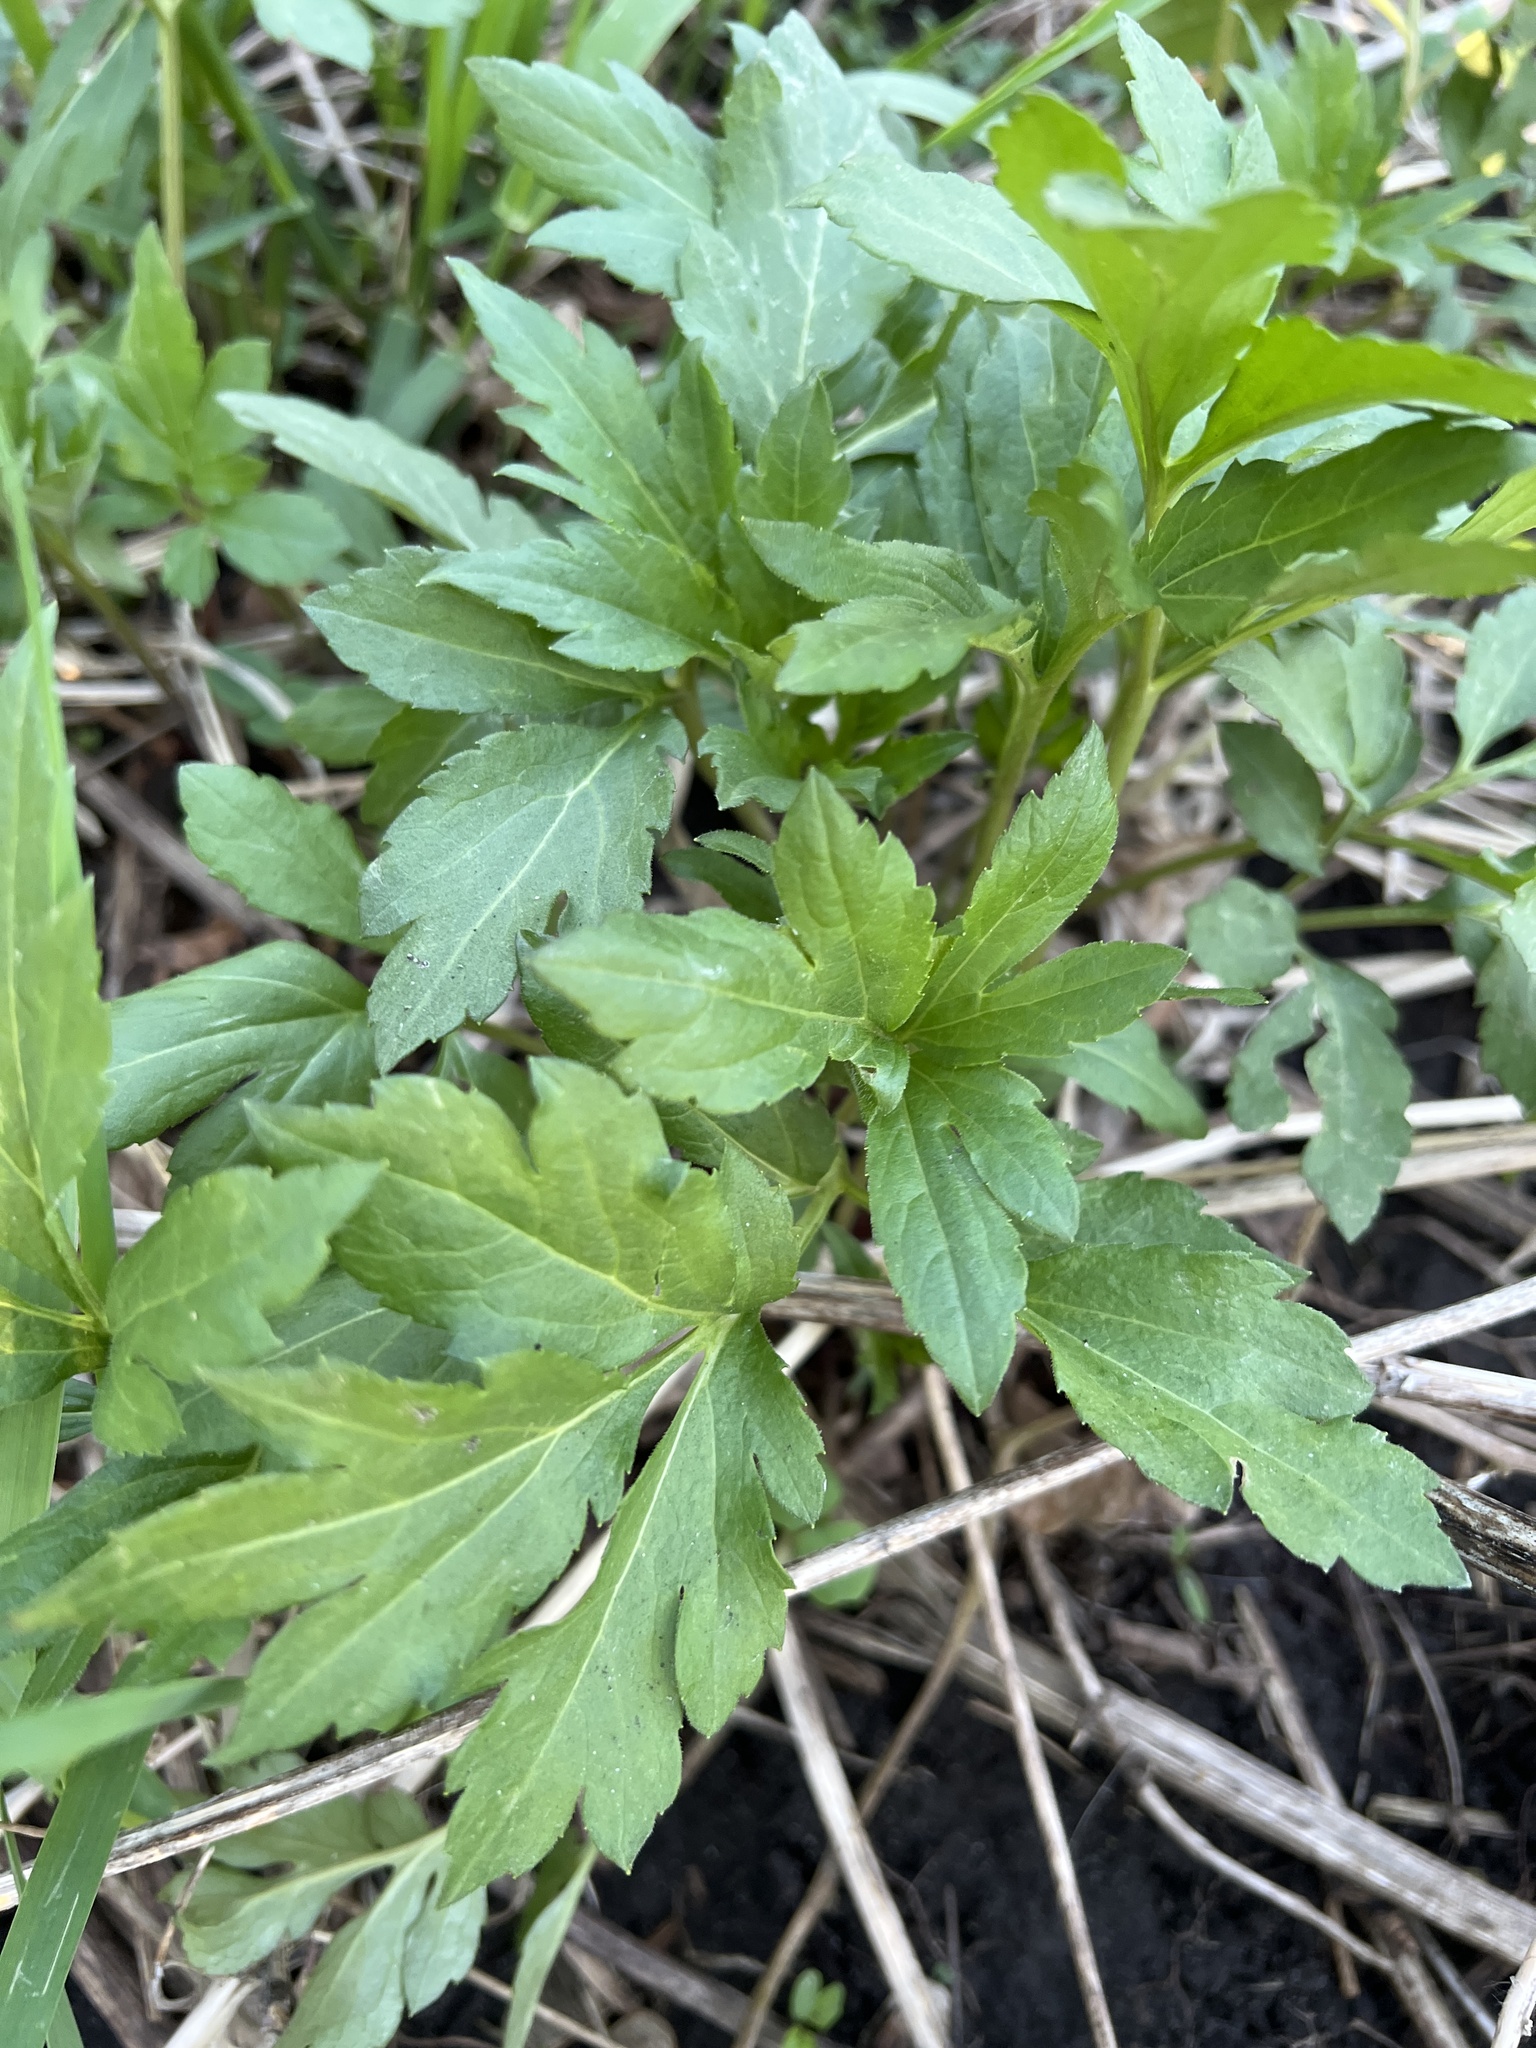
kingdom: Plantae
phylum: Tracheophyta
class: Magnoliopsida
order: Asterales
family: Asteraceae
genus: Rudbeckia
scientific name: Rudbeckia laciniata
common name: Coneflower
